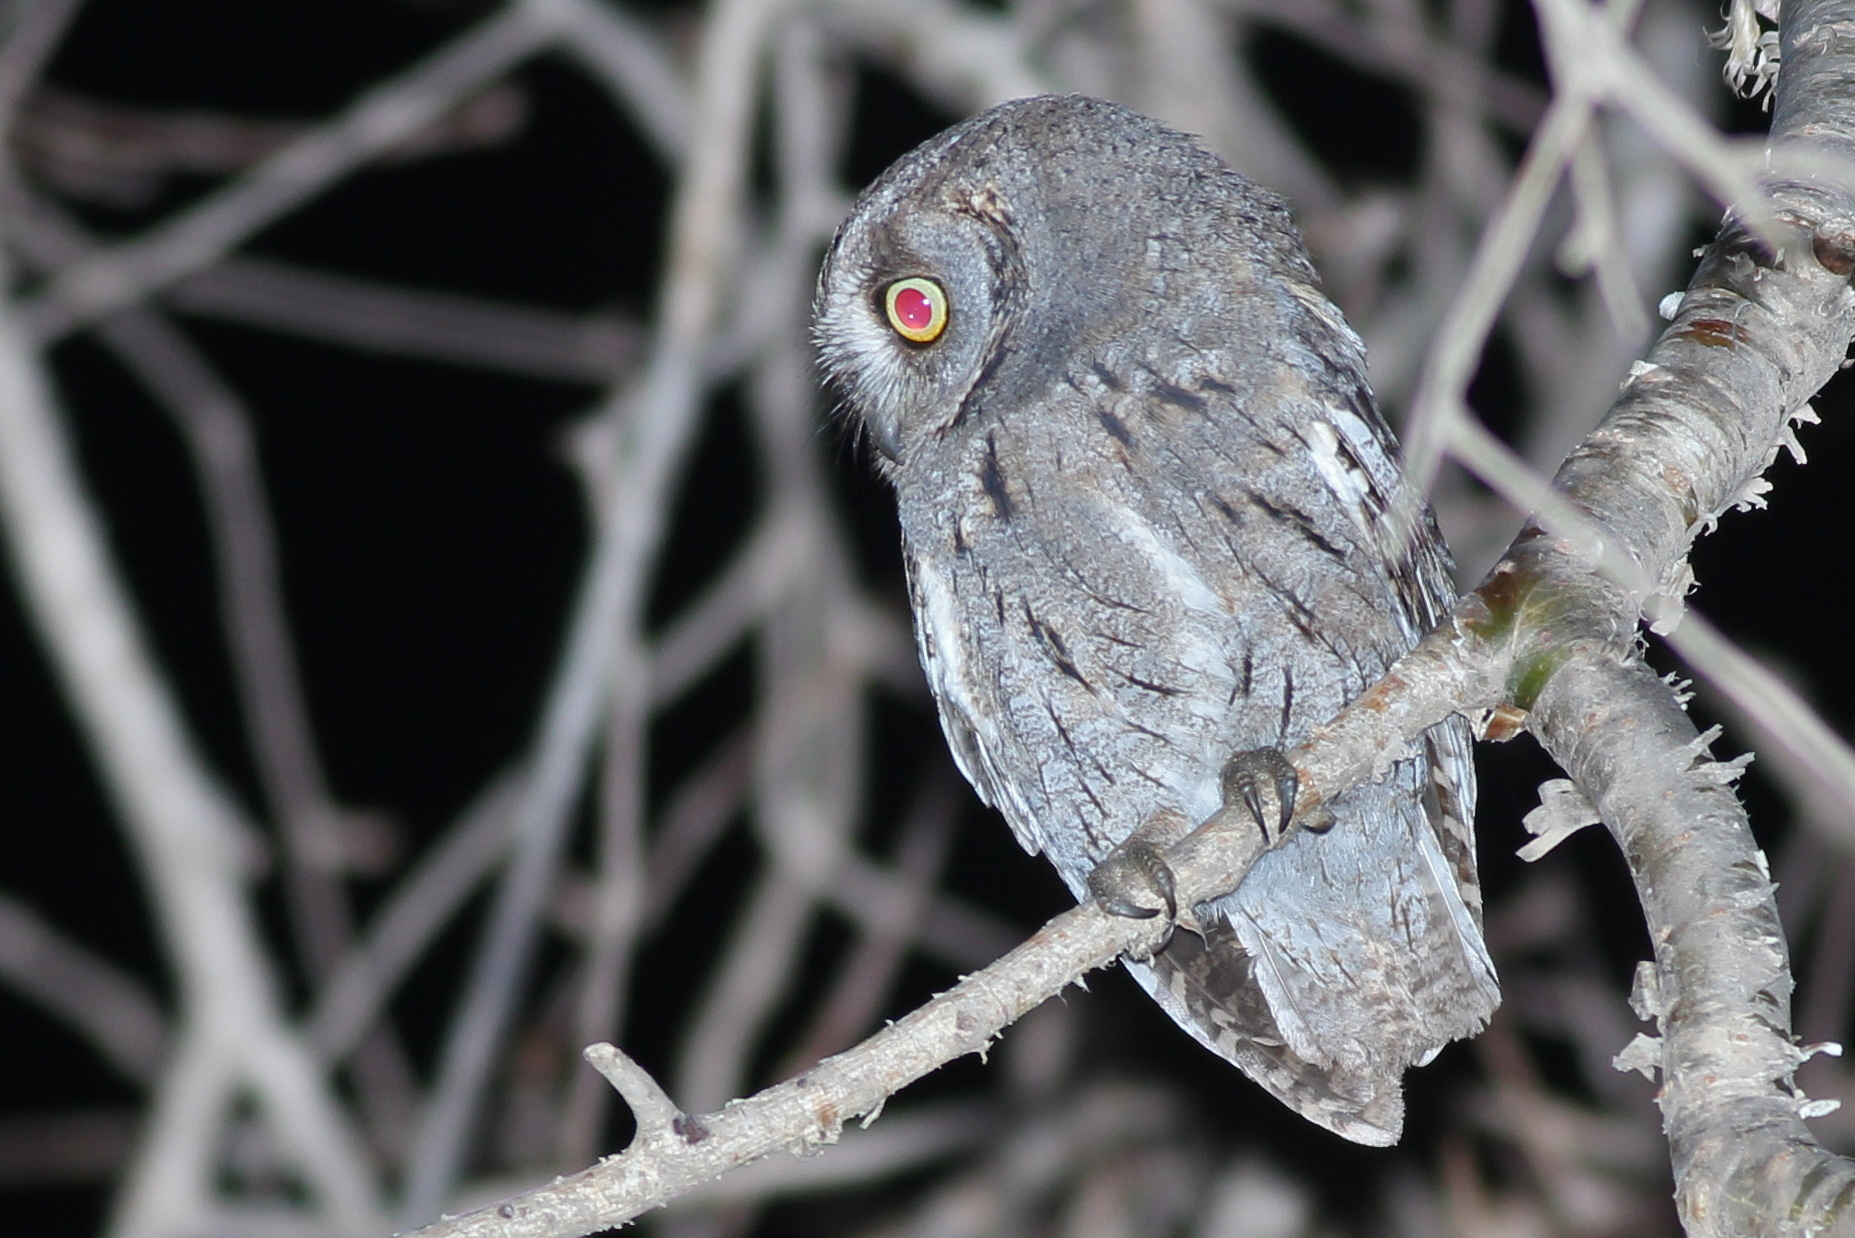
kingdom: Animalia
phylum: Chordata
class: Aves
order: Strigiformes
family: Strigidae
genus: Otus
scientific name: Otus pamelae
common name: Arabian scops owl
